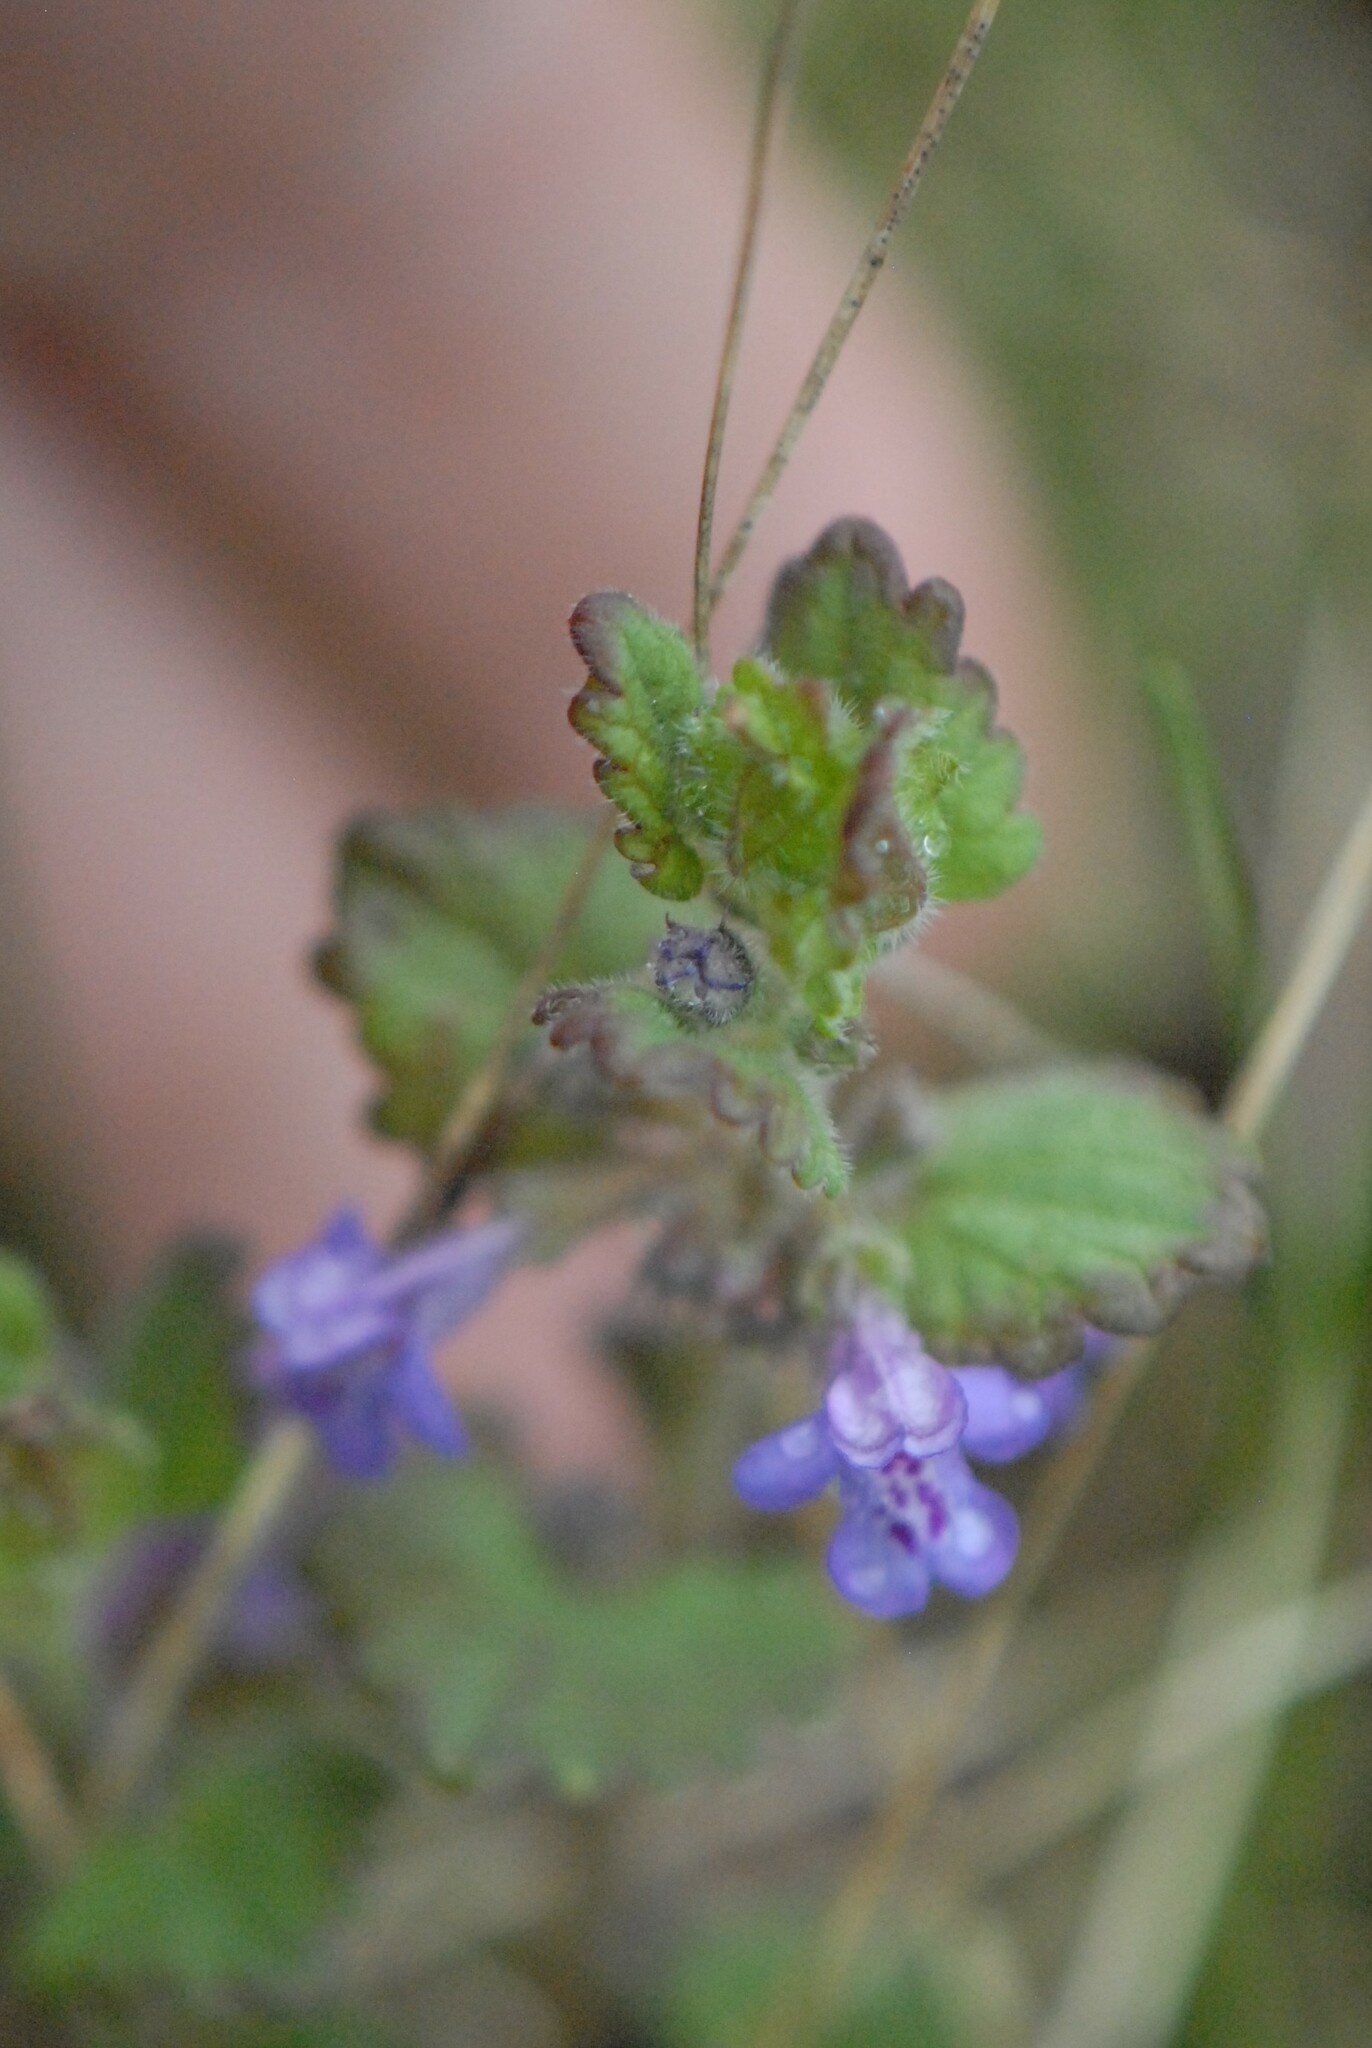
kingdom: Plantae
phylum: Tracheophyta
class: Magnoliopsida
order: Lamiales
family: Lamiaceae
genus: Glechoma
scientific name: Glechoma hederacea
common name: Ground ivy
